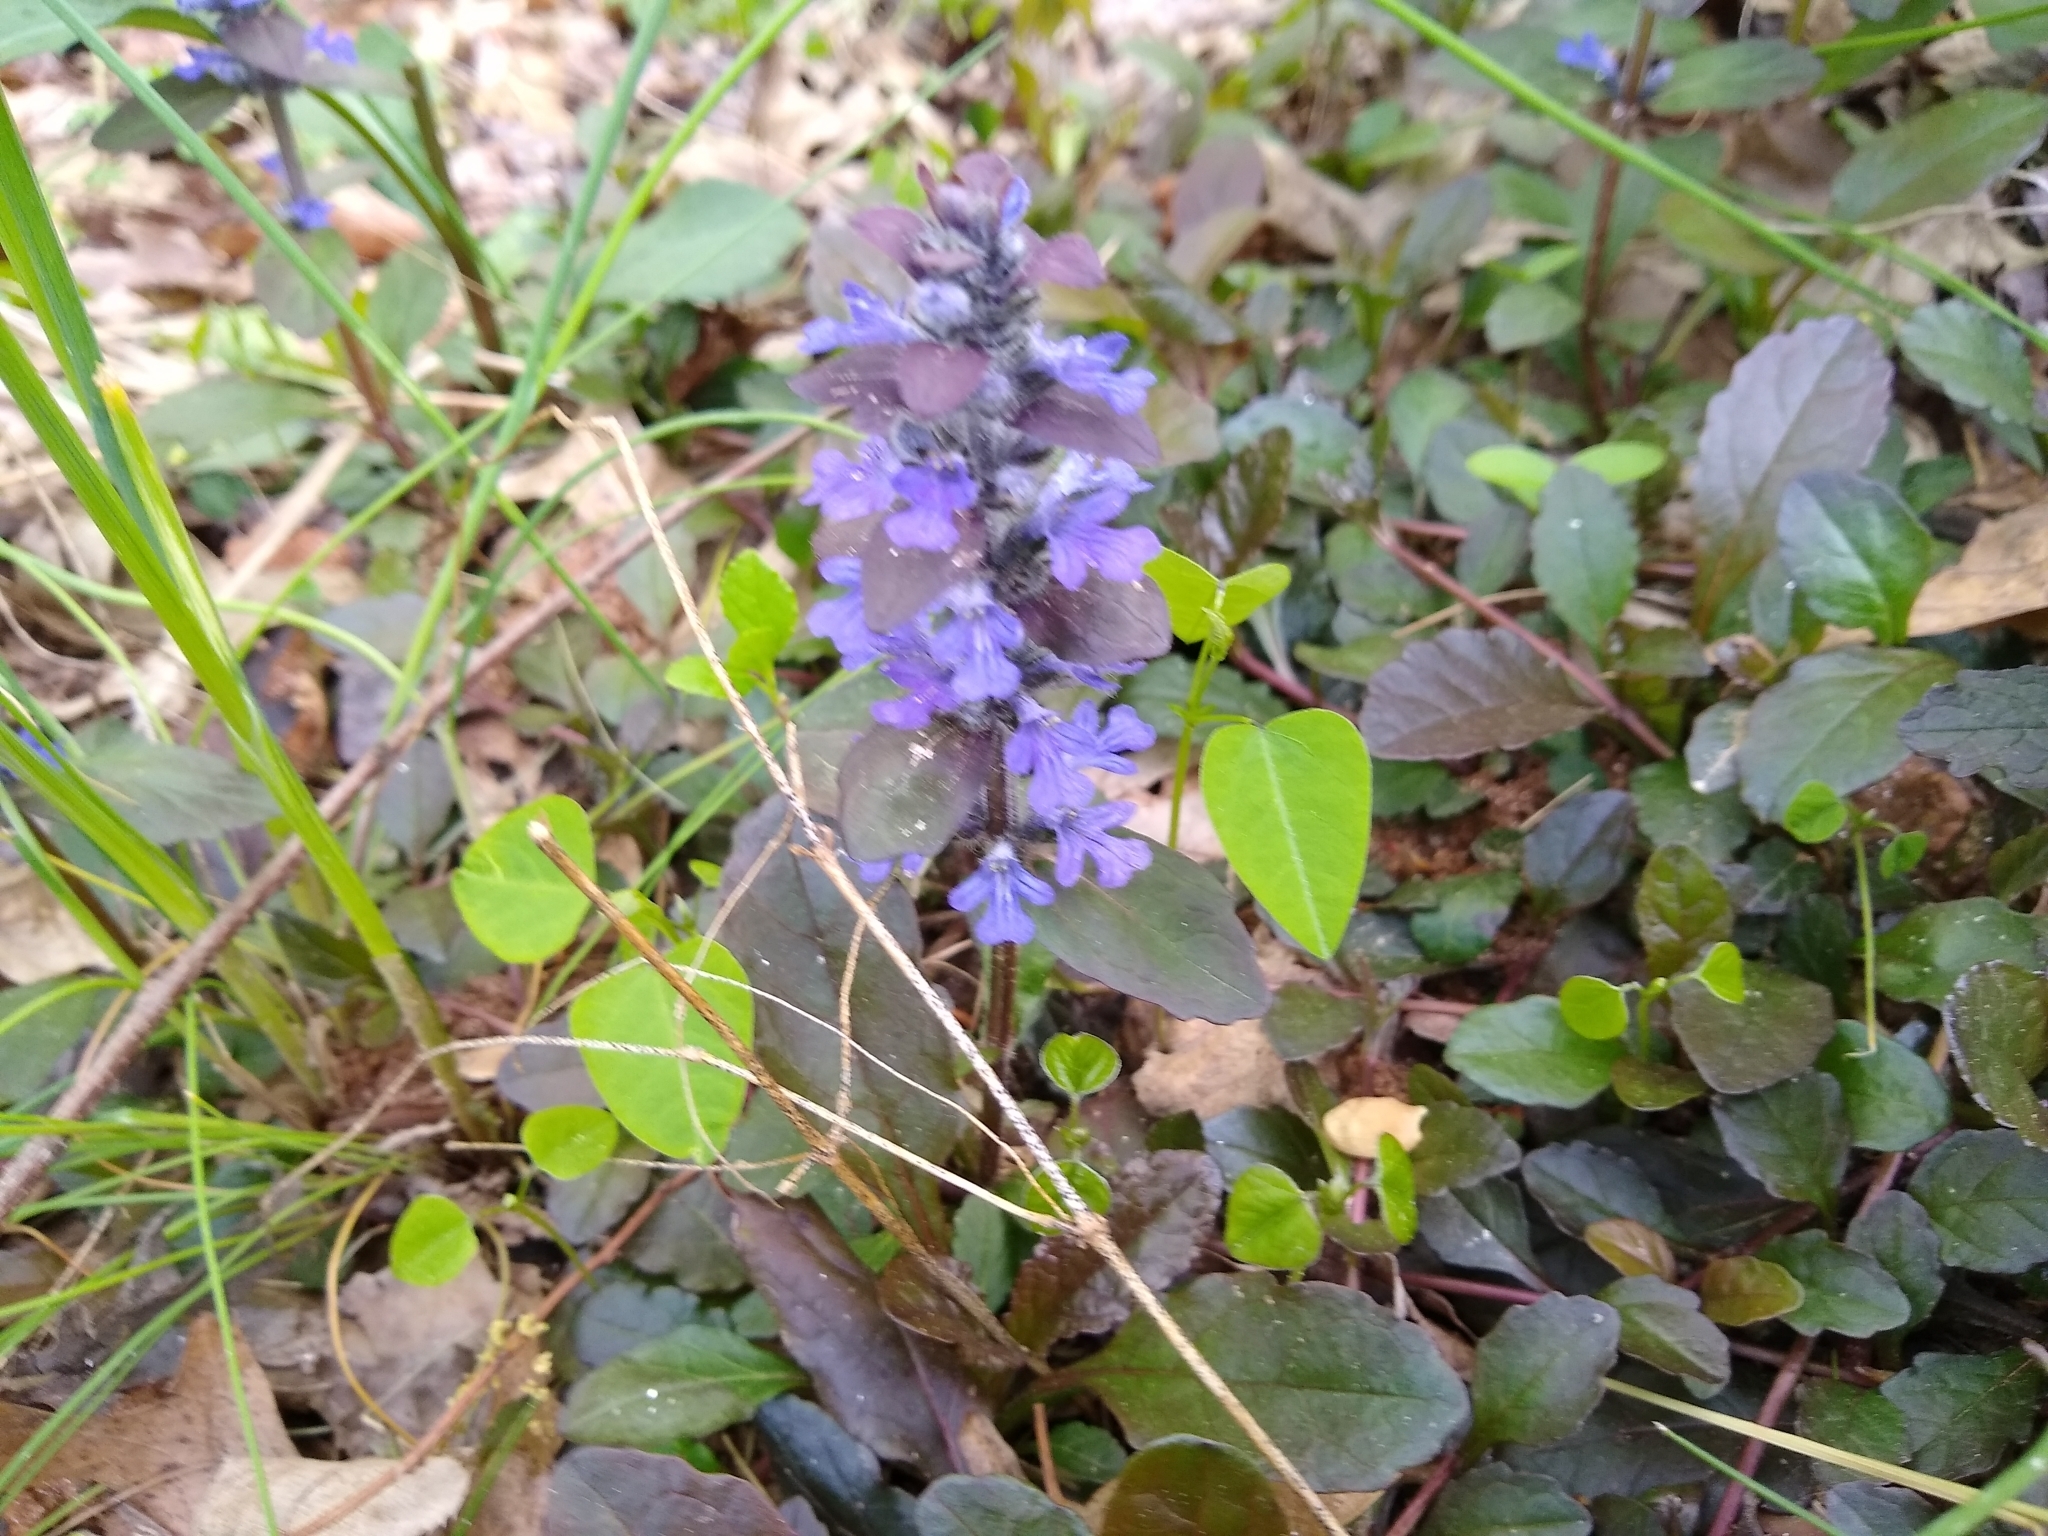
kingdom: Plantae
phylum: Tracheophyta
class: Magnoliopsida
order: Lamiales
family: Lamiaceae
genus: Ajuga
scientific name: Ajuga reptans
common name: Bugle
